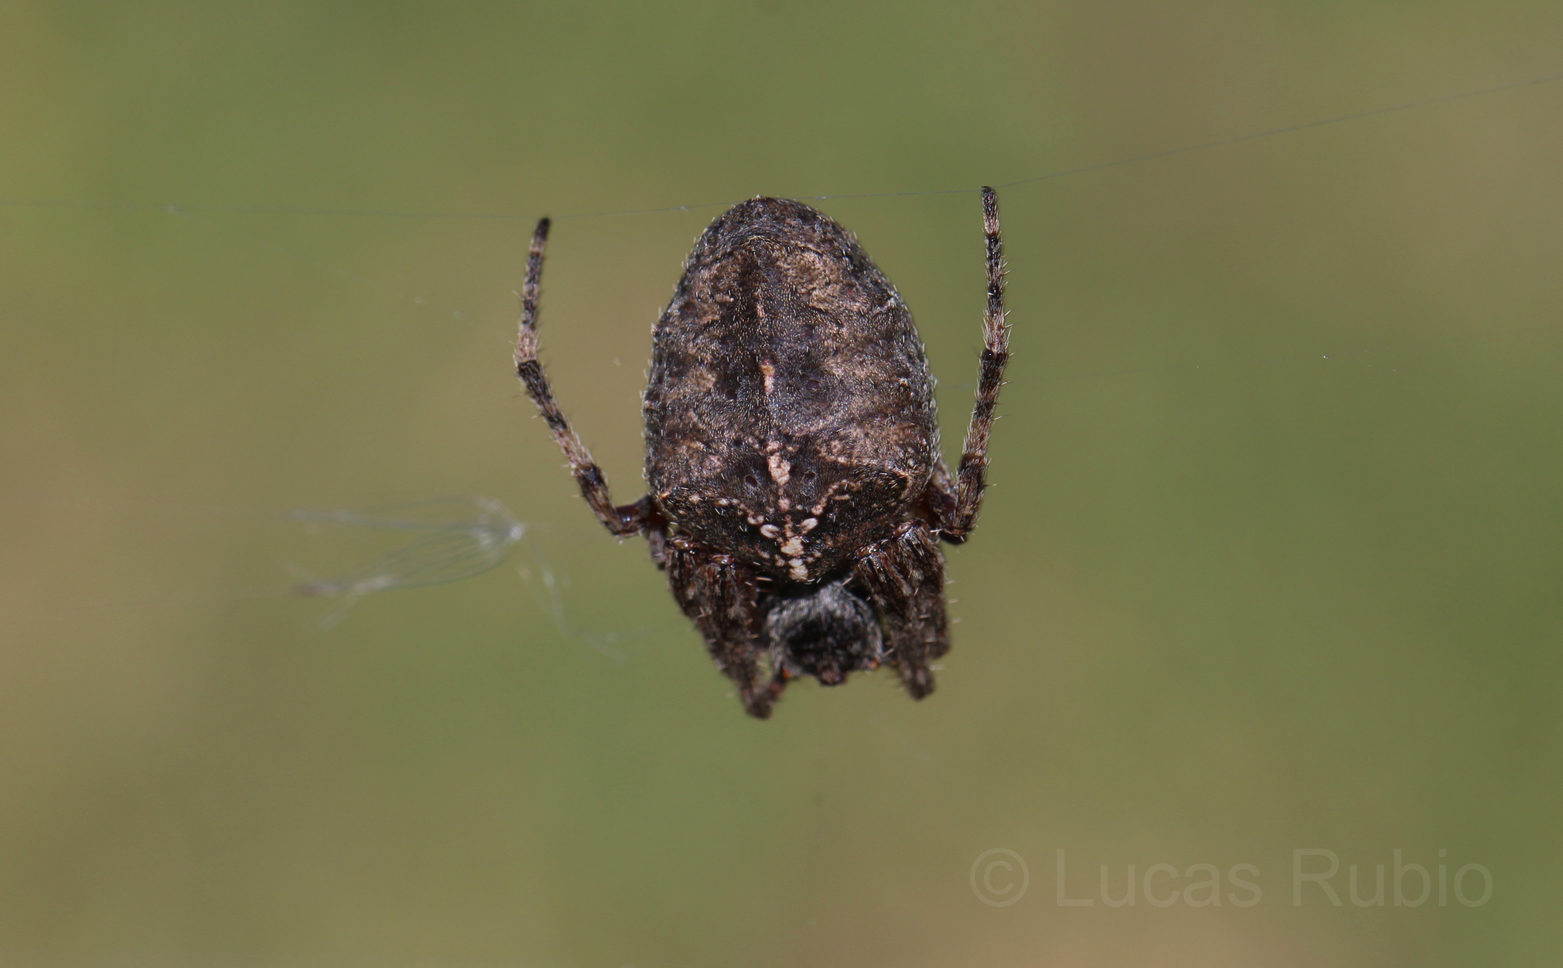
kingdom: Animalia
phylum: Arthropoda
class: Arachnida
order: Araneae
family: Araneidae
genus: Parawixia
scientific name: Parawixia undulata
